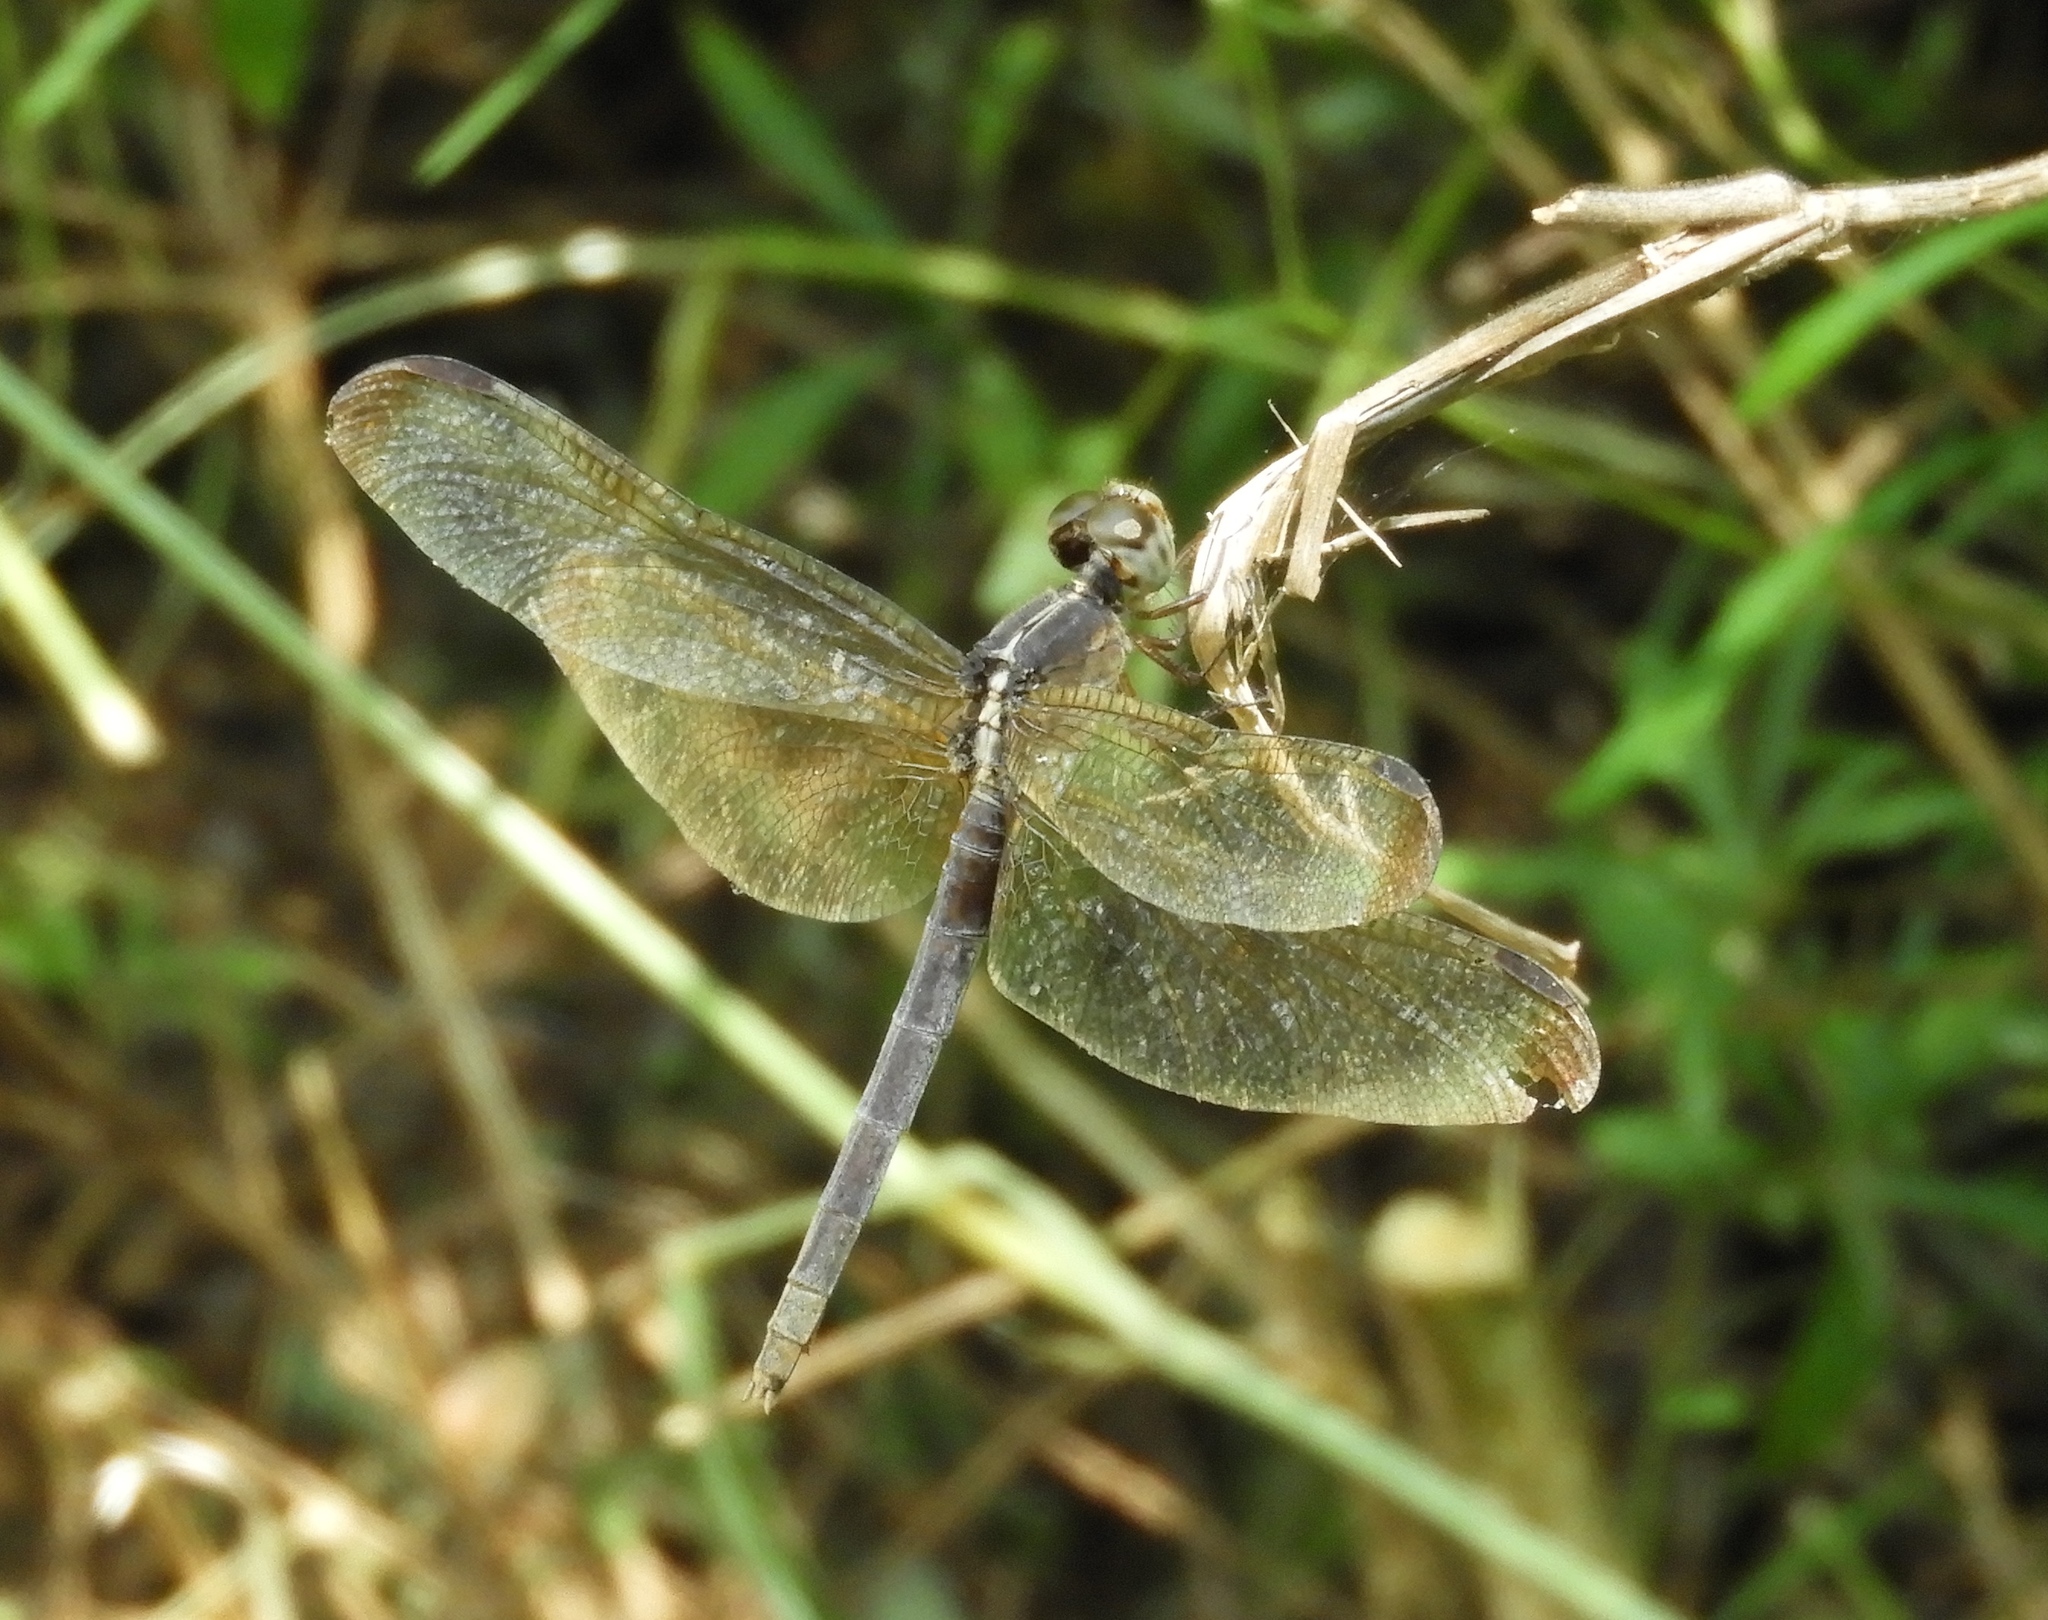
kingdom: Animalia
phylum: Arthropoda
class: Insecta
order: Odonata
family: Libellulidae
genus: Erythrodiplax
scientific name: Erythrodiplax funerea
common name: Black-winged dragonlet
